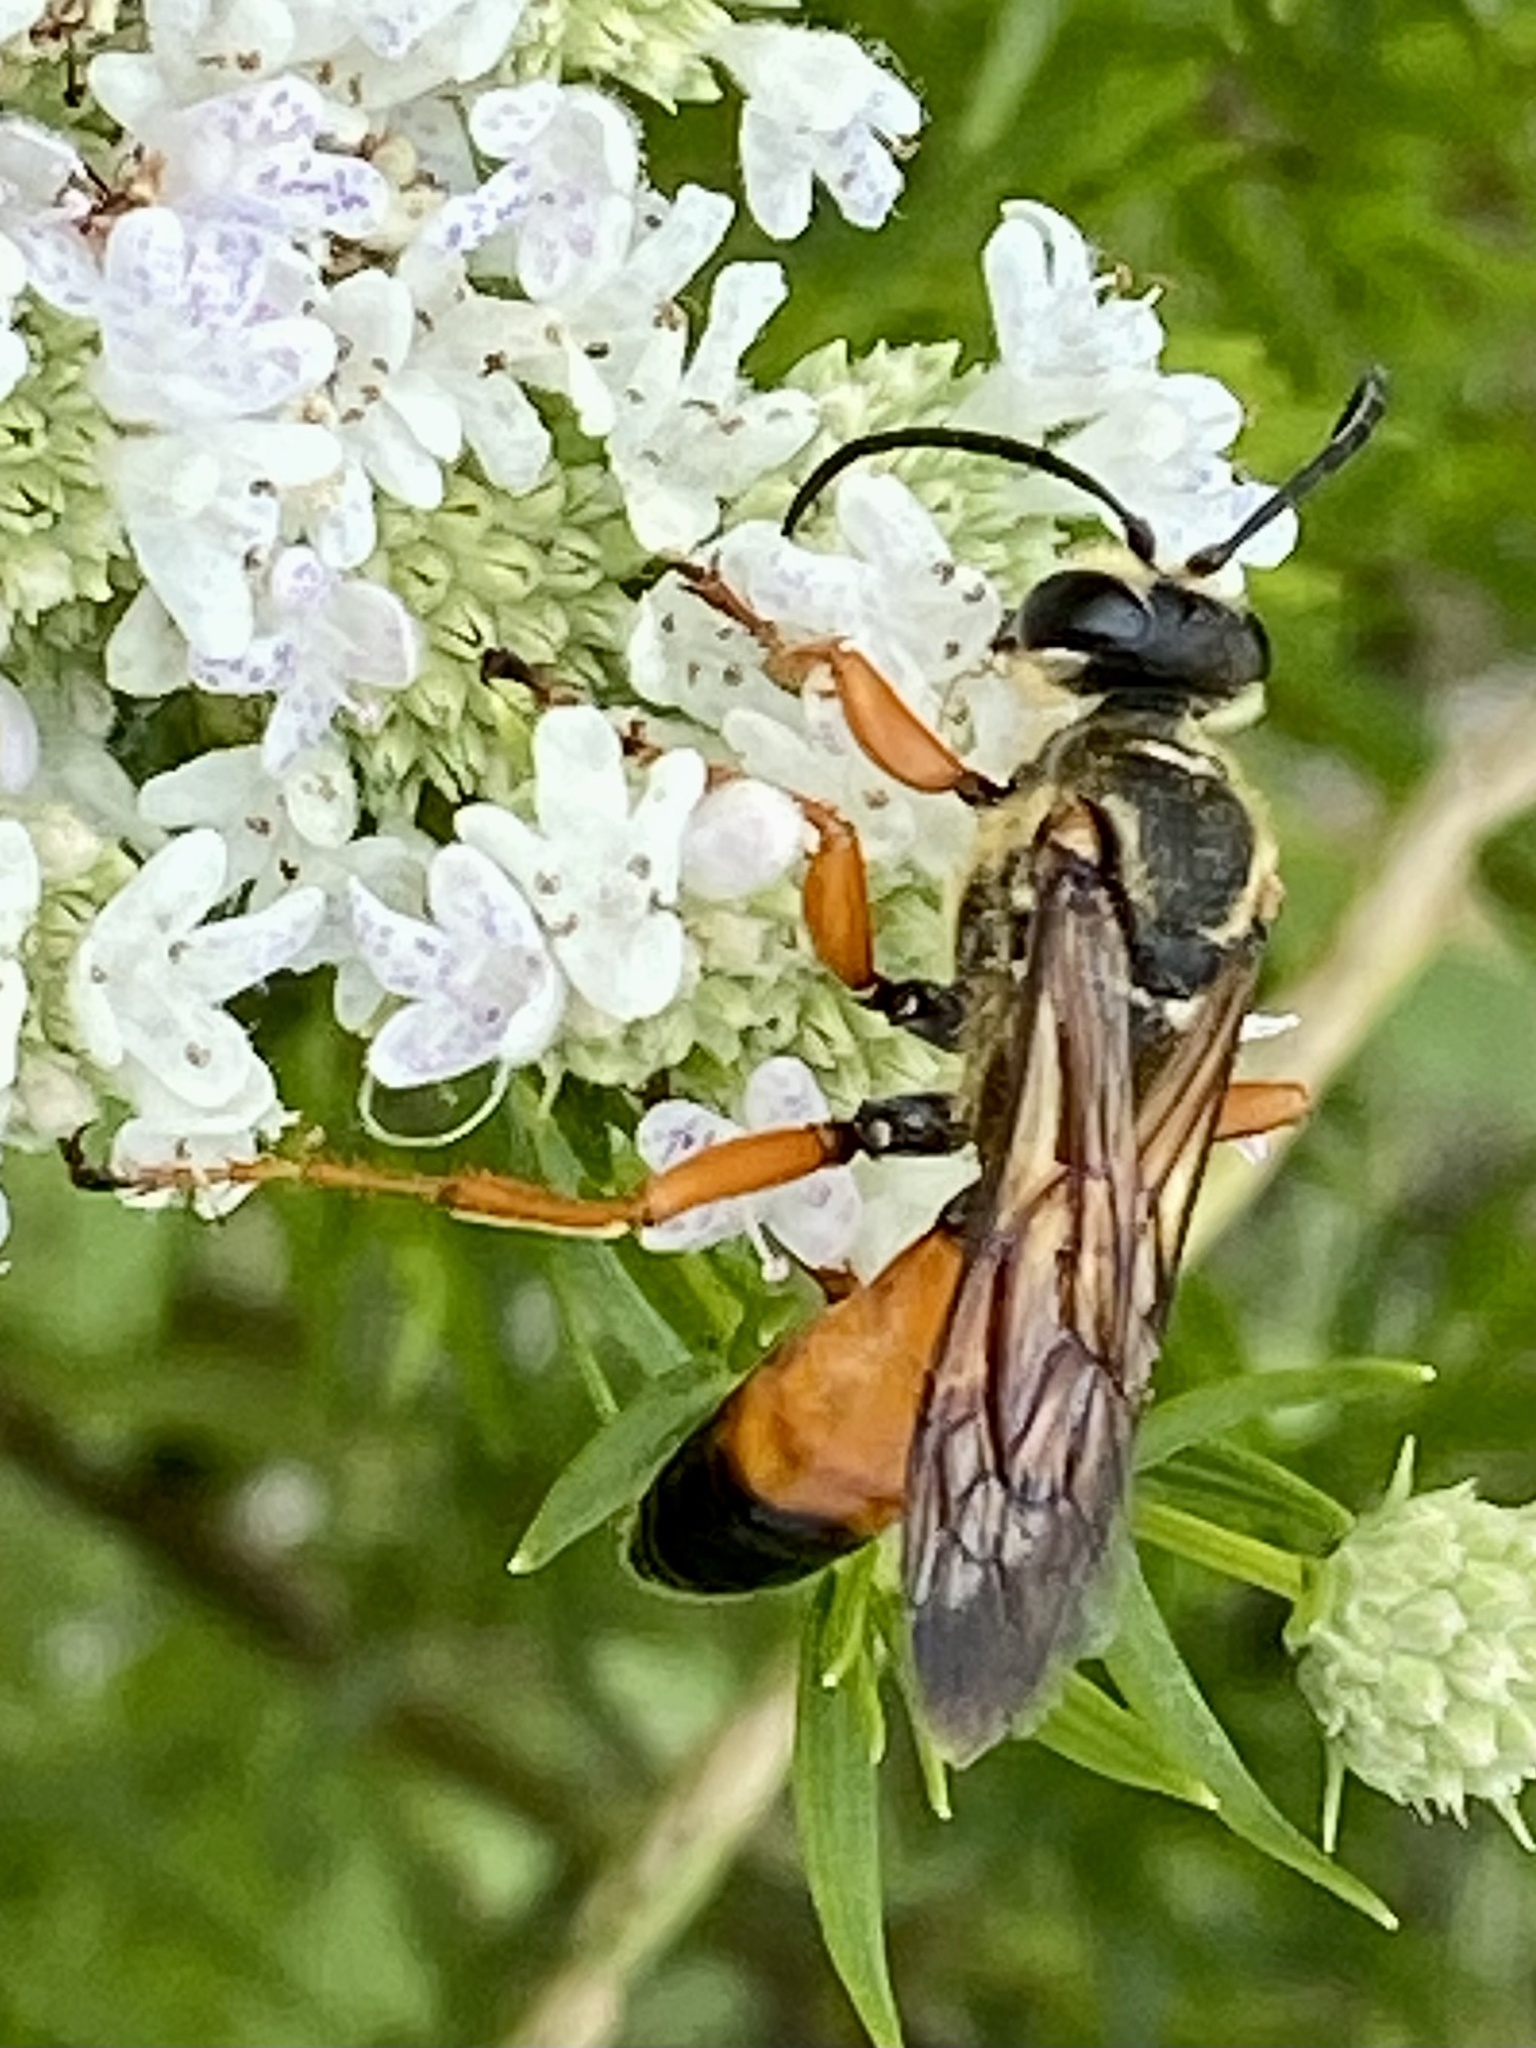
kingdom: Animalia
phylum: Arthropoda
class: Insecta
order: Hymenoptera
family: Sphecidae
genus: Sphex
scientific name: Sphex ichneumoneus
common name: Great golden digger wasp
